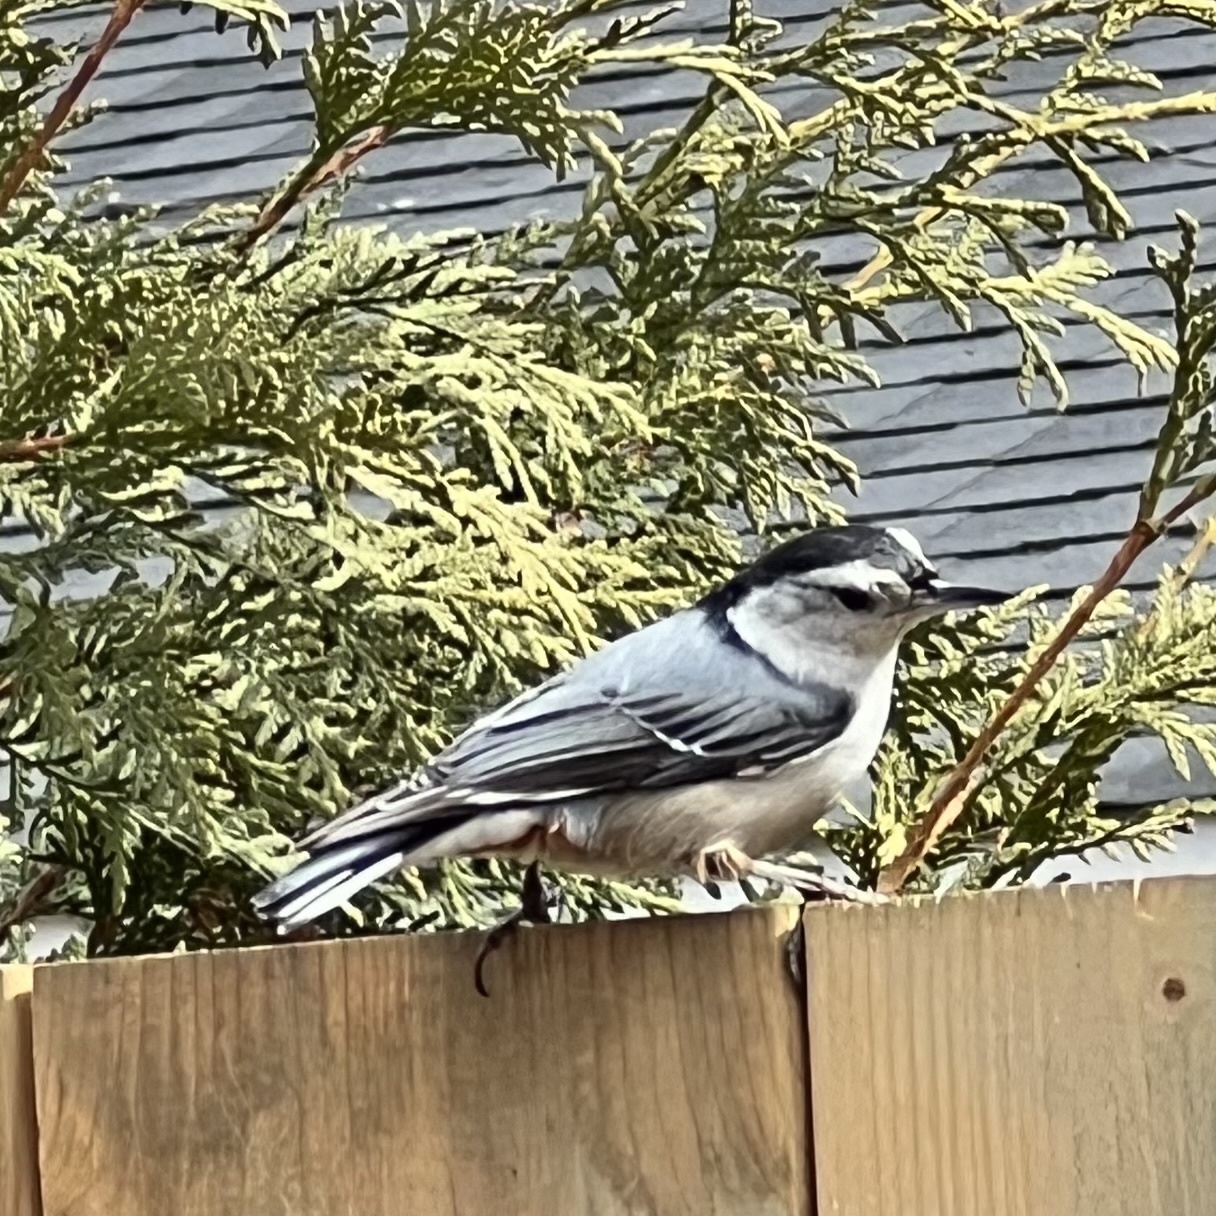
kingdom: Animalia
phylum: Chordata
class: Aves
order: Passeriformes
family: Sittidae
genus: Sitta
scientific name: Sitta carolinensis
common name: White-breasted nuthatch
